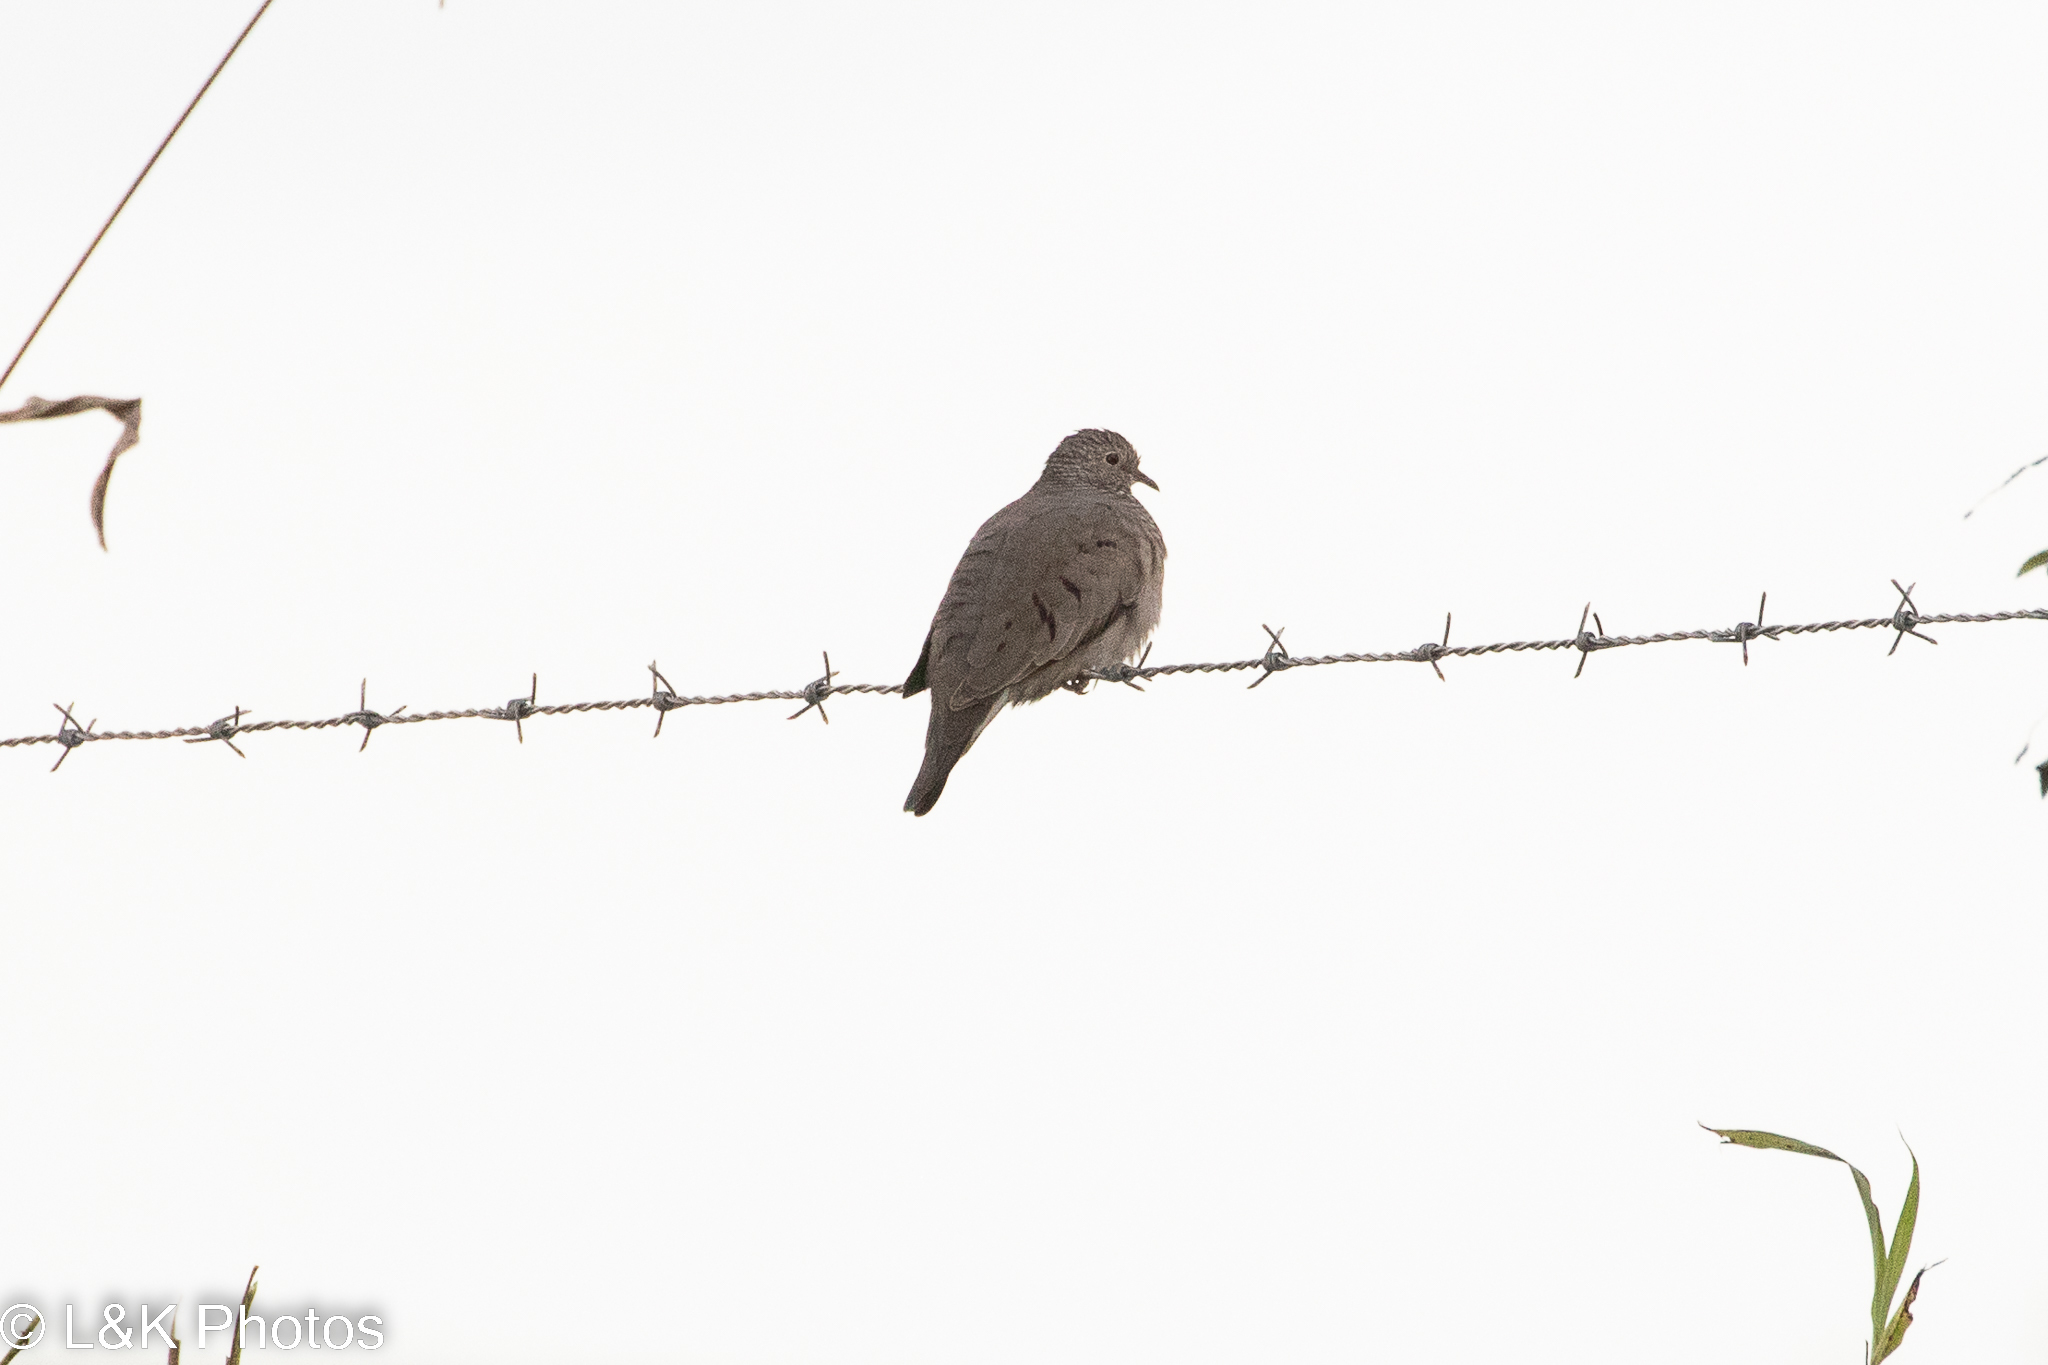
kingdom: Animalia
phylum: Chordata
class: Aves
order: Columbiformes
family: Columbidae
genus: Columbina
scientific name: Columbina passerina
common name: Common ground-dove
